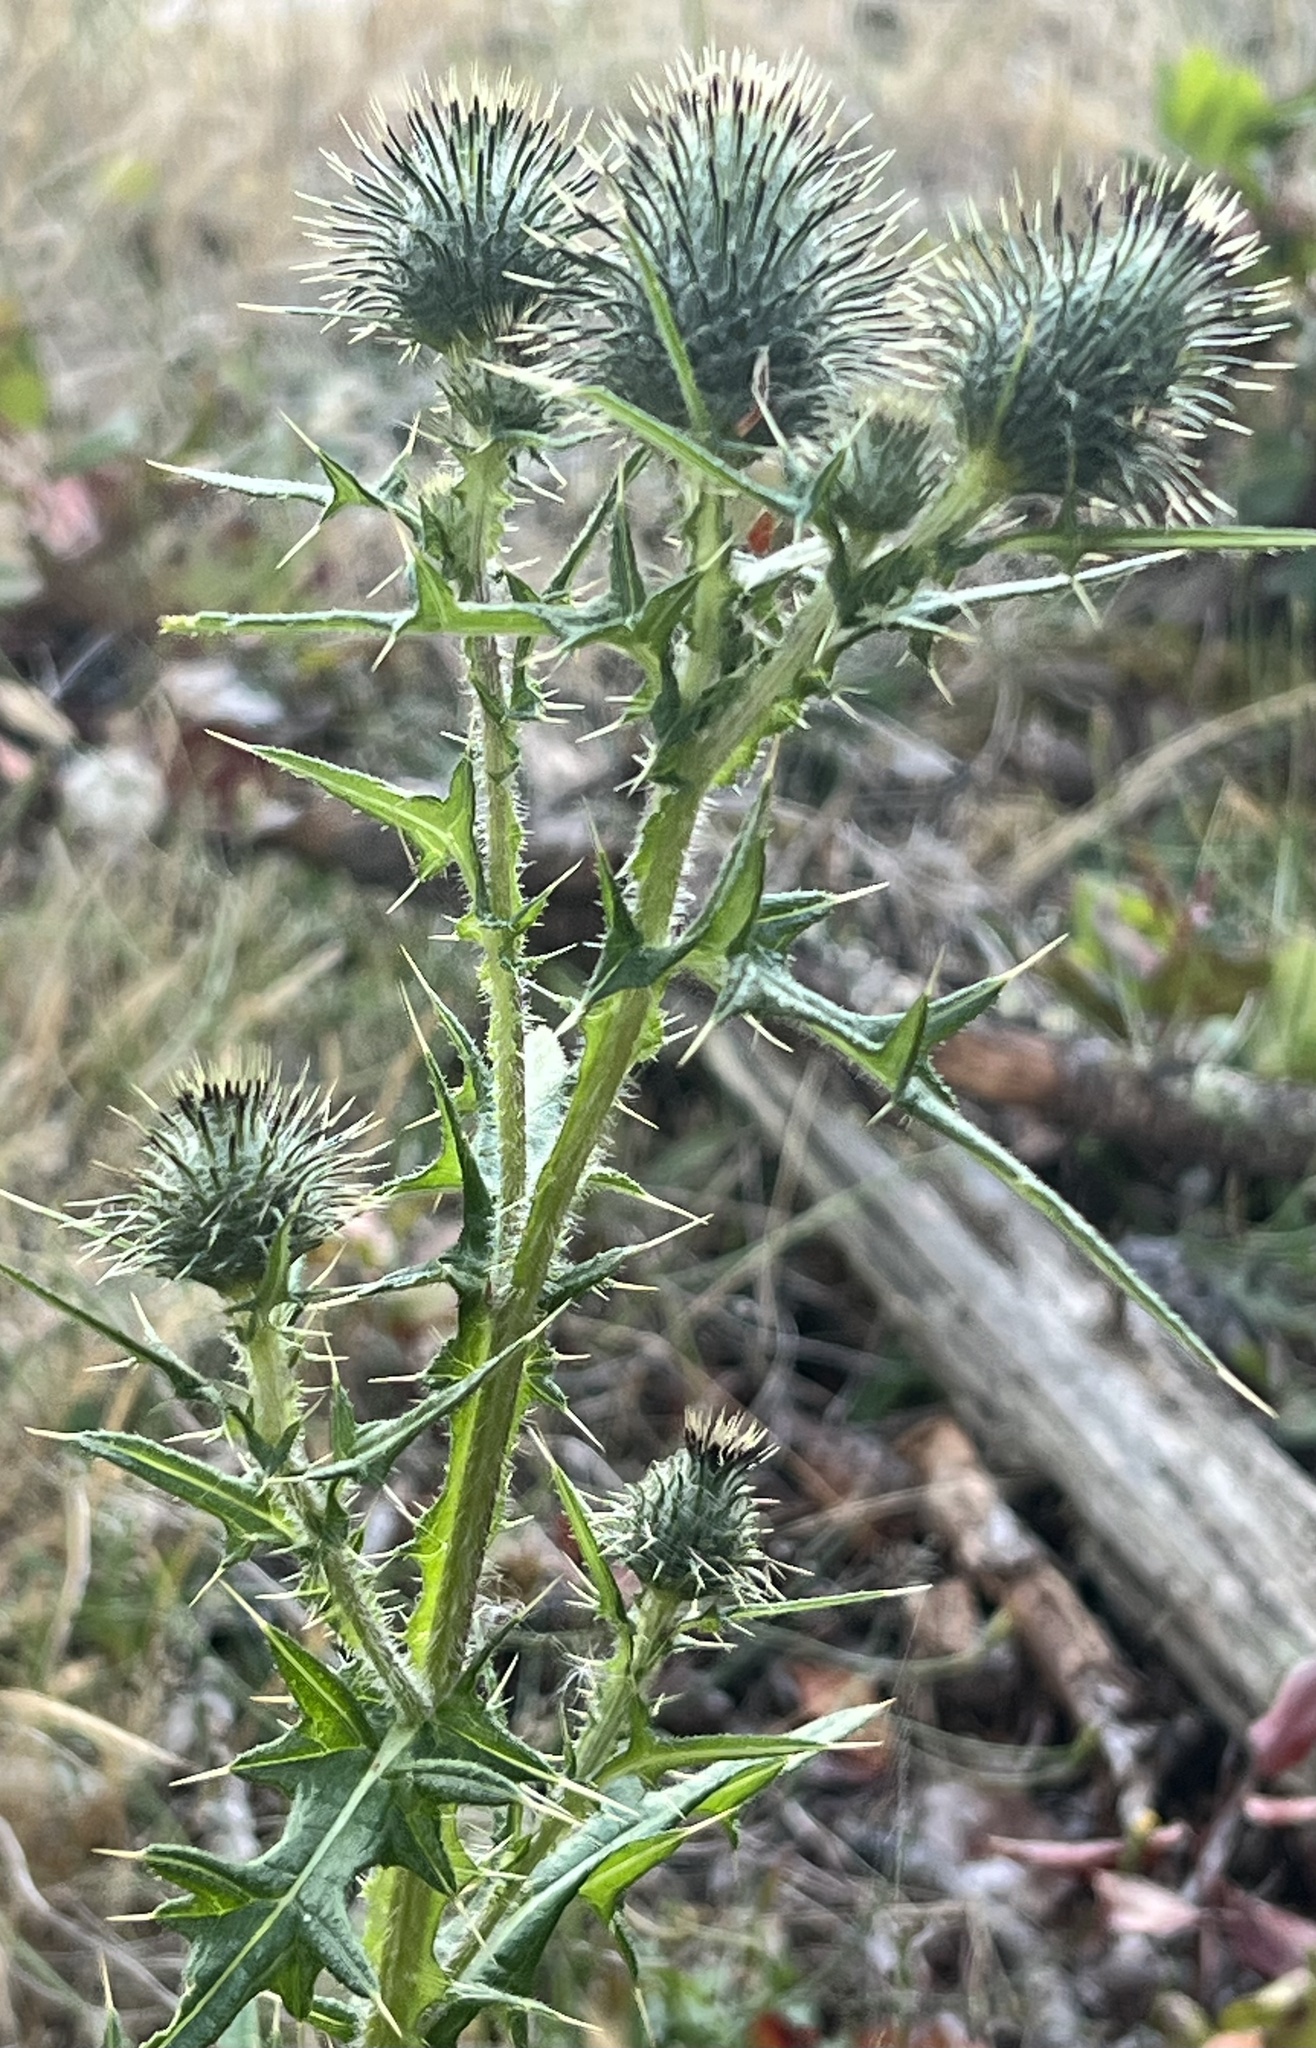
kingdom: Plantae
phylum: Tracheophyta
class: Magnoliopsida
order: Asterales
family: Asteraceae
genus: Cirsium
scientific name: Cirsium vulgare
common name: Bull thistle
